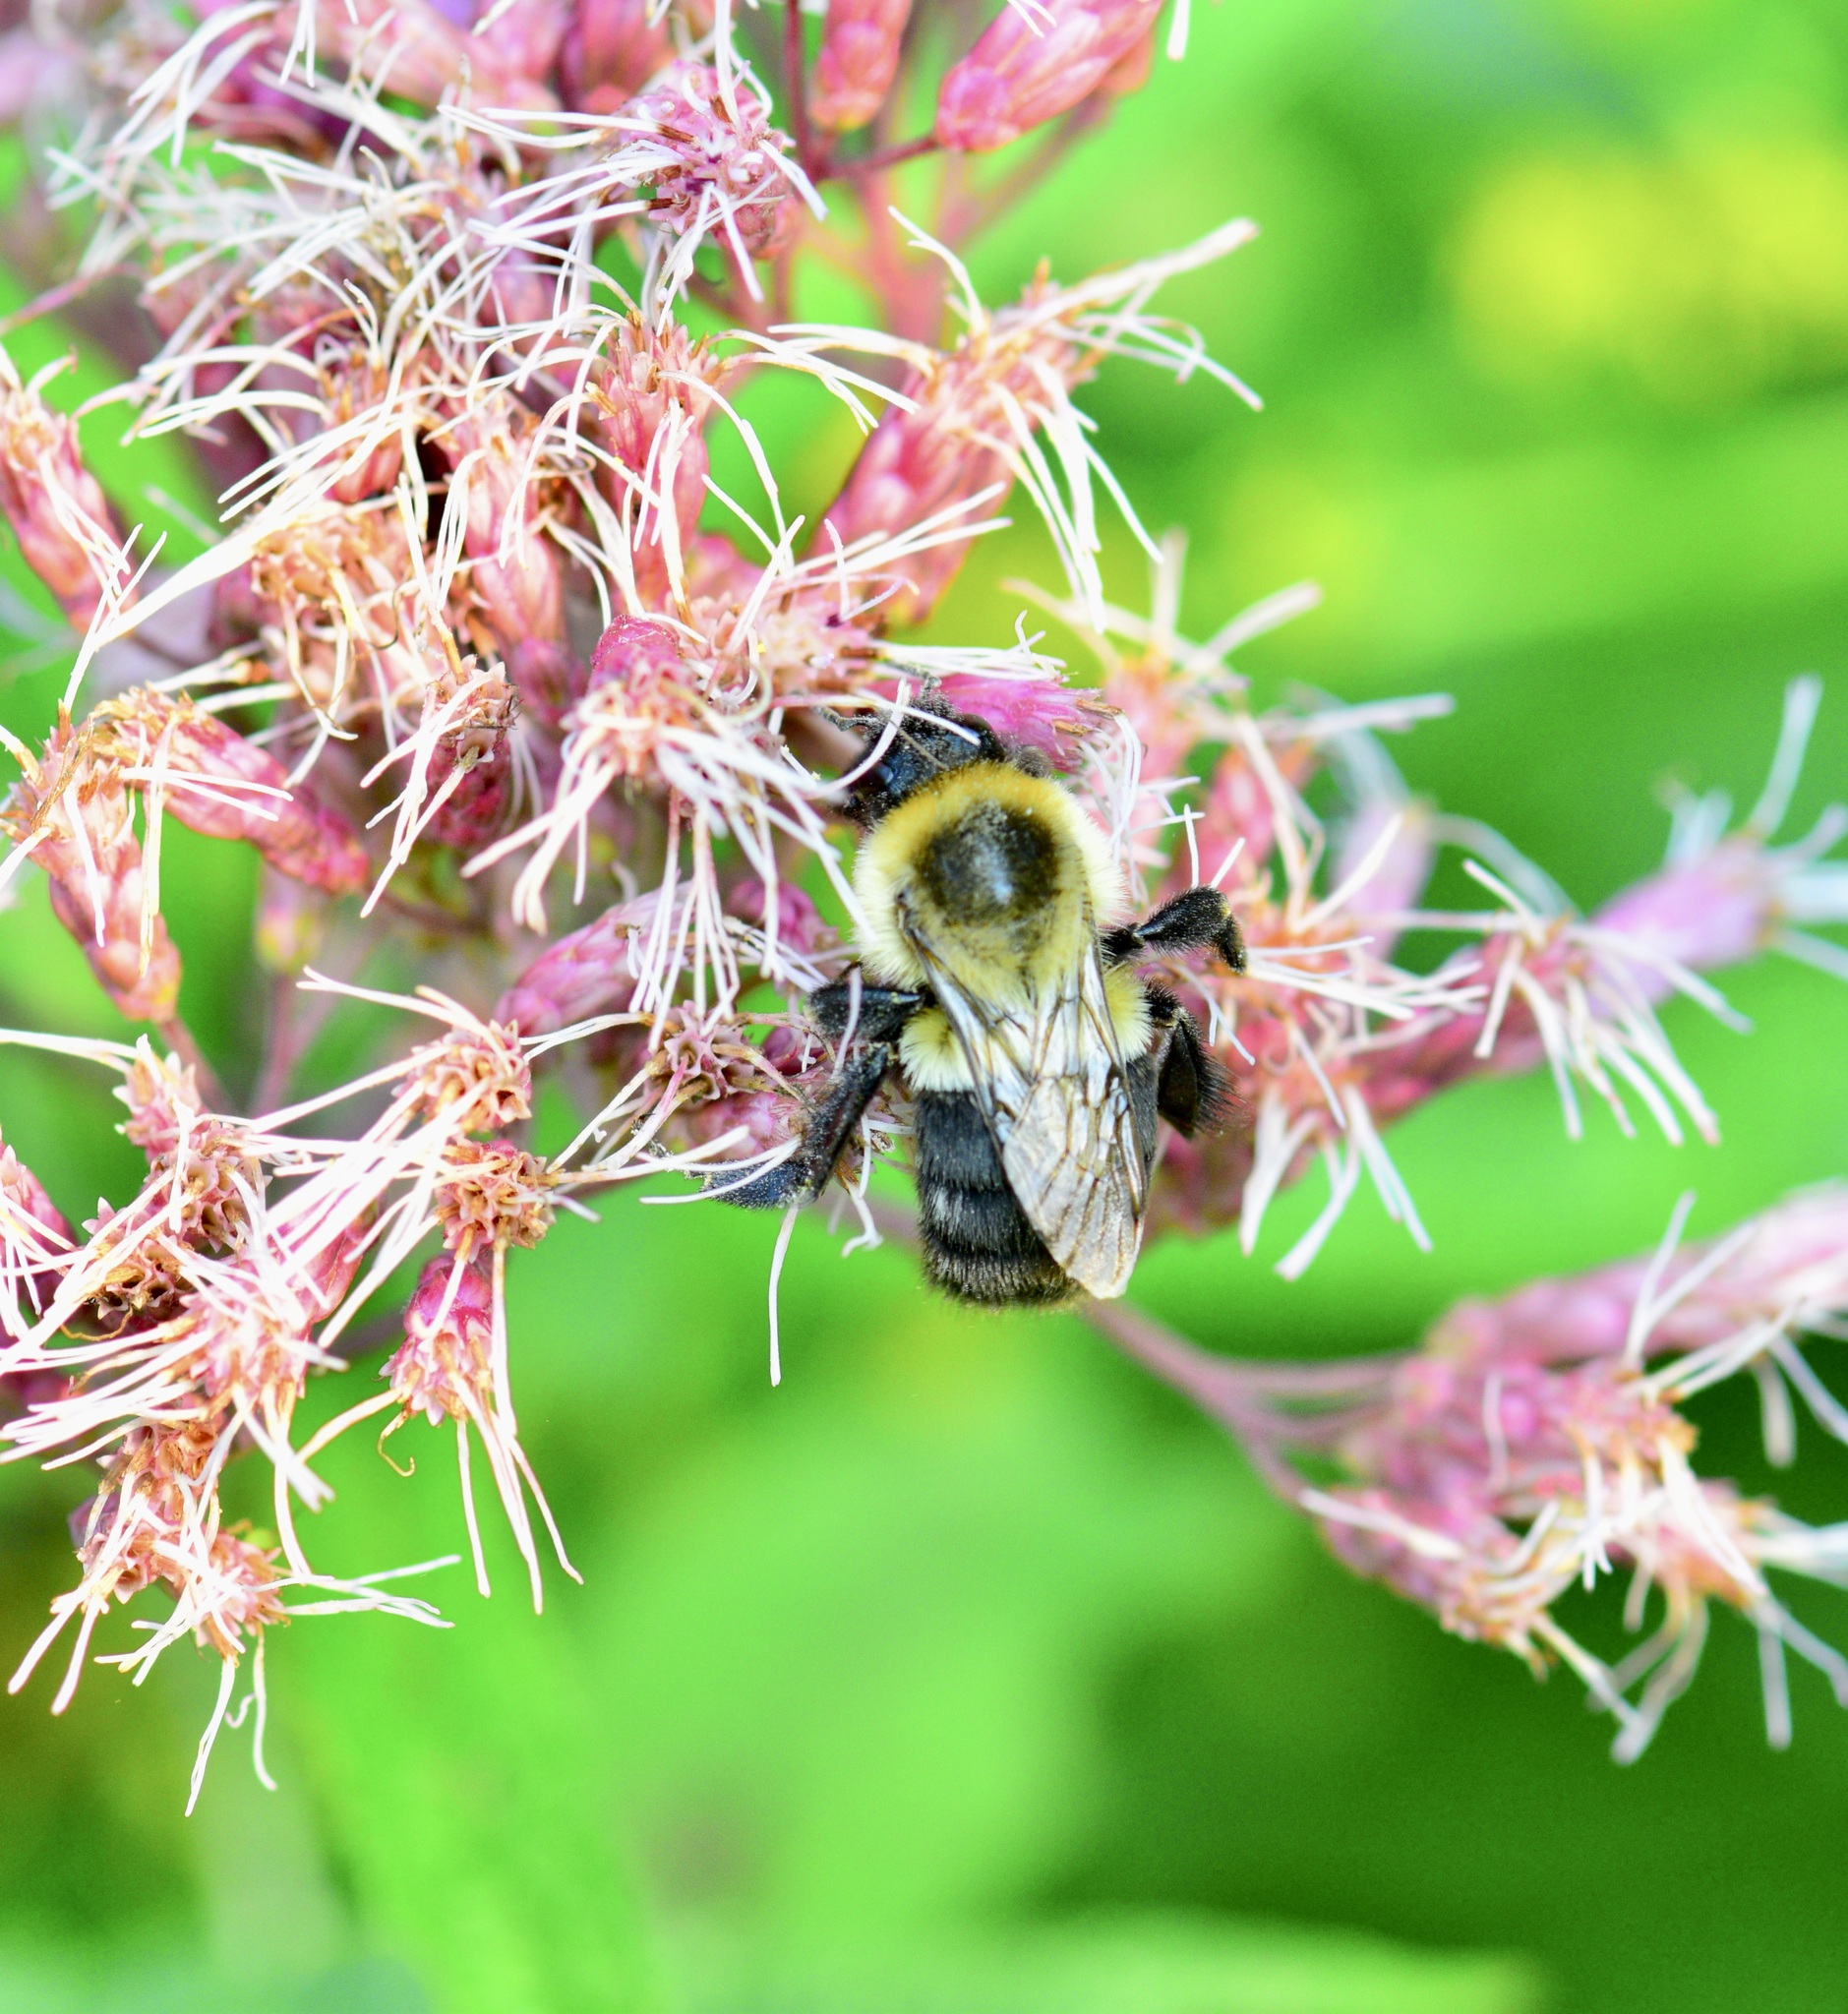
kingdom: Animalia
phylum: Arthropoda
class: Insecta
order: Hymenoptera
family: Apidae
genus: Bombus
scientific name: Bombus impatiens
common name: Common eastern bumble bee
